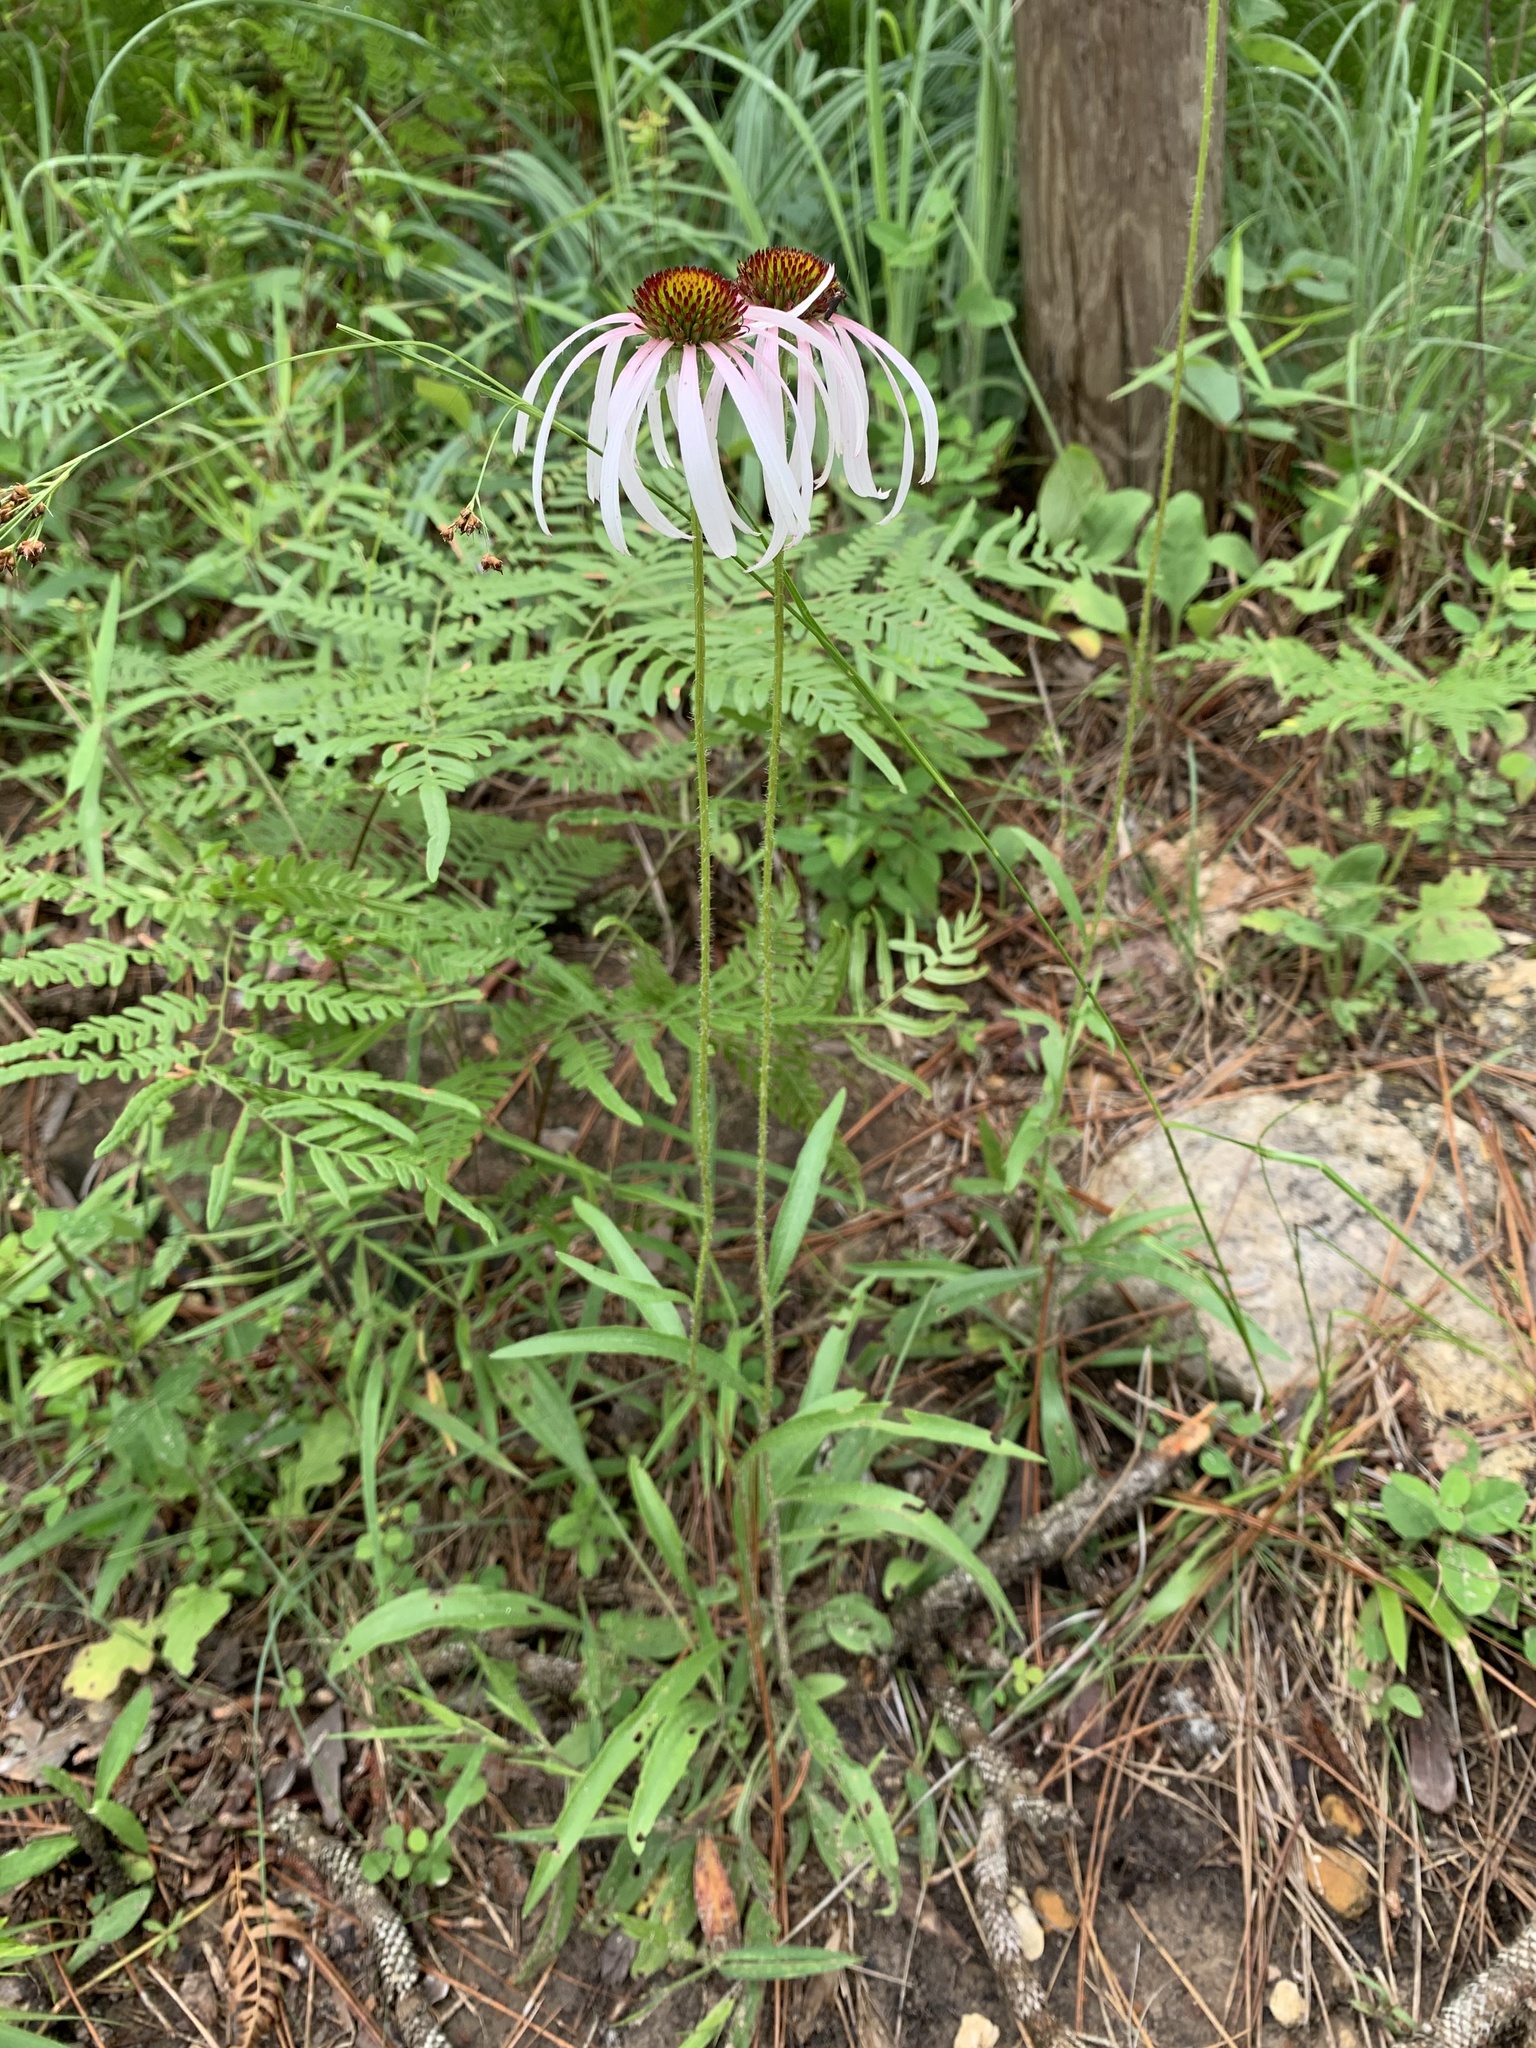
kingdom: Plantae
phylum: Tracheophyta
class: Magnoliopsida
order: Asterales
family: Asteraceae
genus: Echinacea
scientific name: Echinacea sanguinea
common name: Sanguine purple-coneflower
